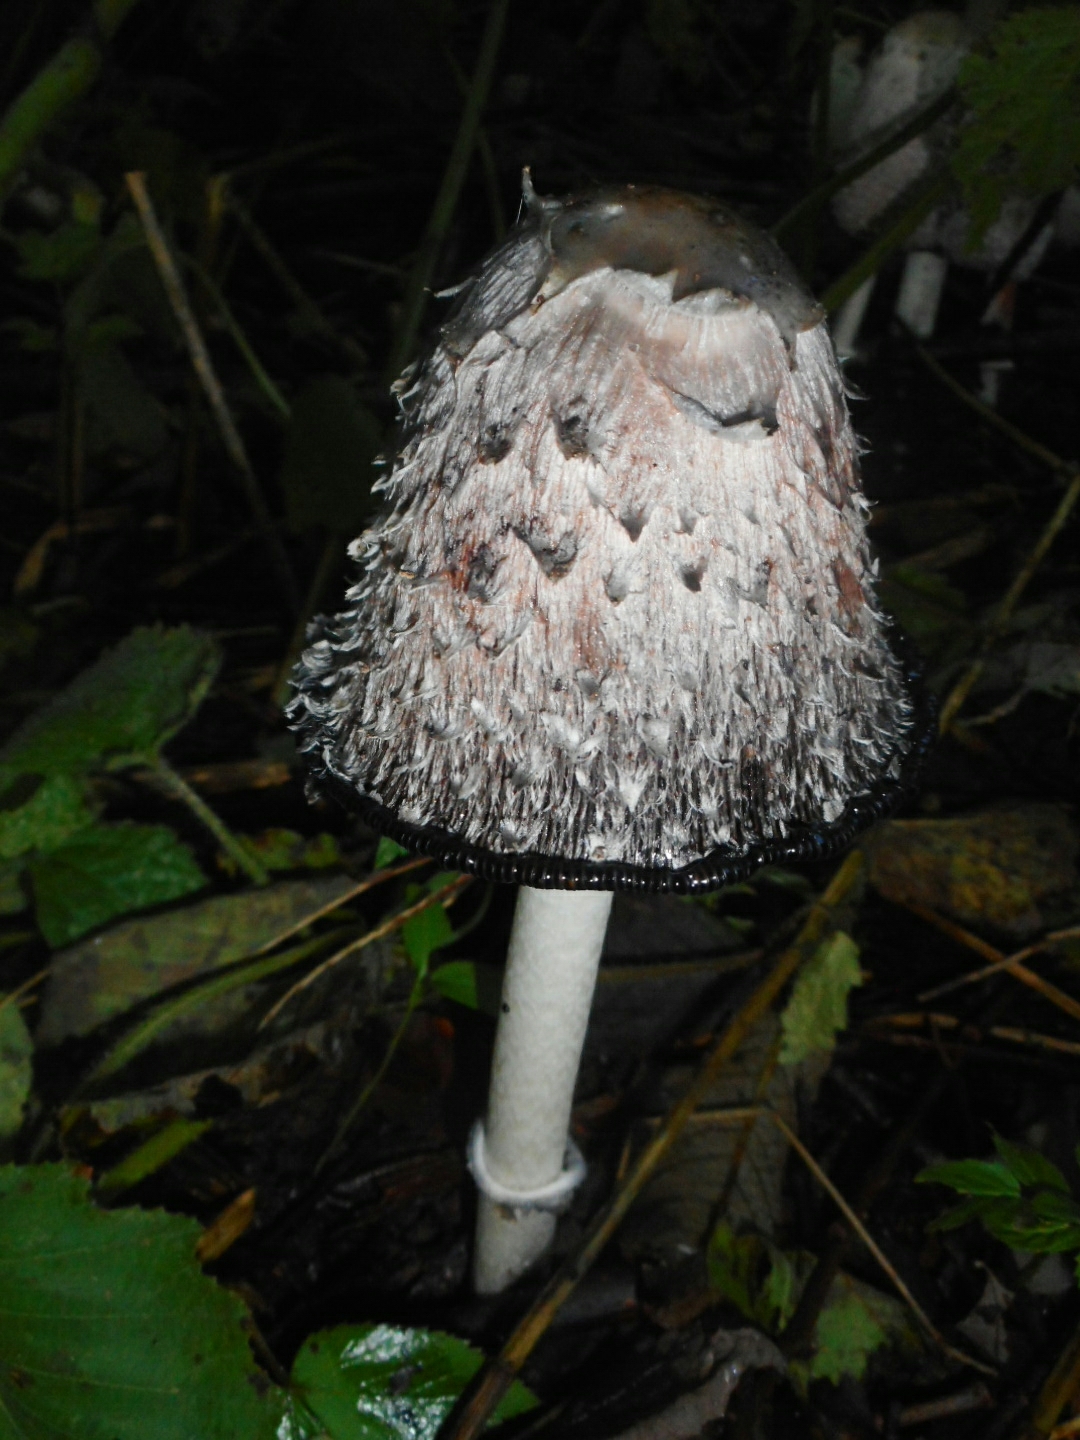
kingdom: Fungi
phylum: Basidiomycota
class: Agaricomycetes
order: Agaricales
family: Agaricaceae
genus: Coprinus
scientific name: Coprinus comatus
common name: Lawyer's wig
